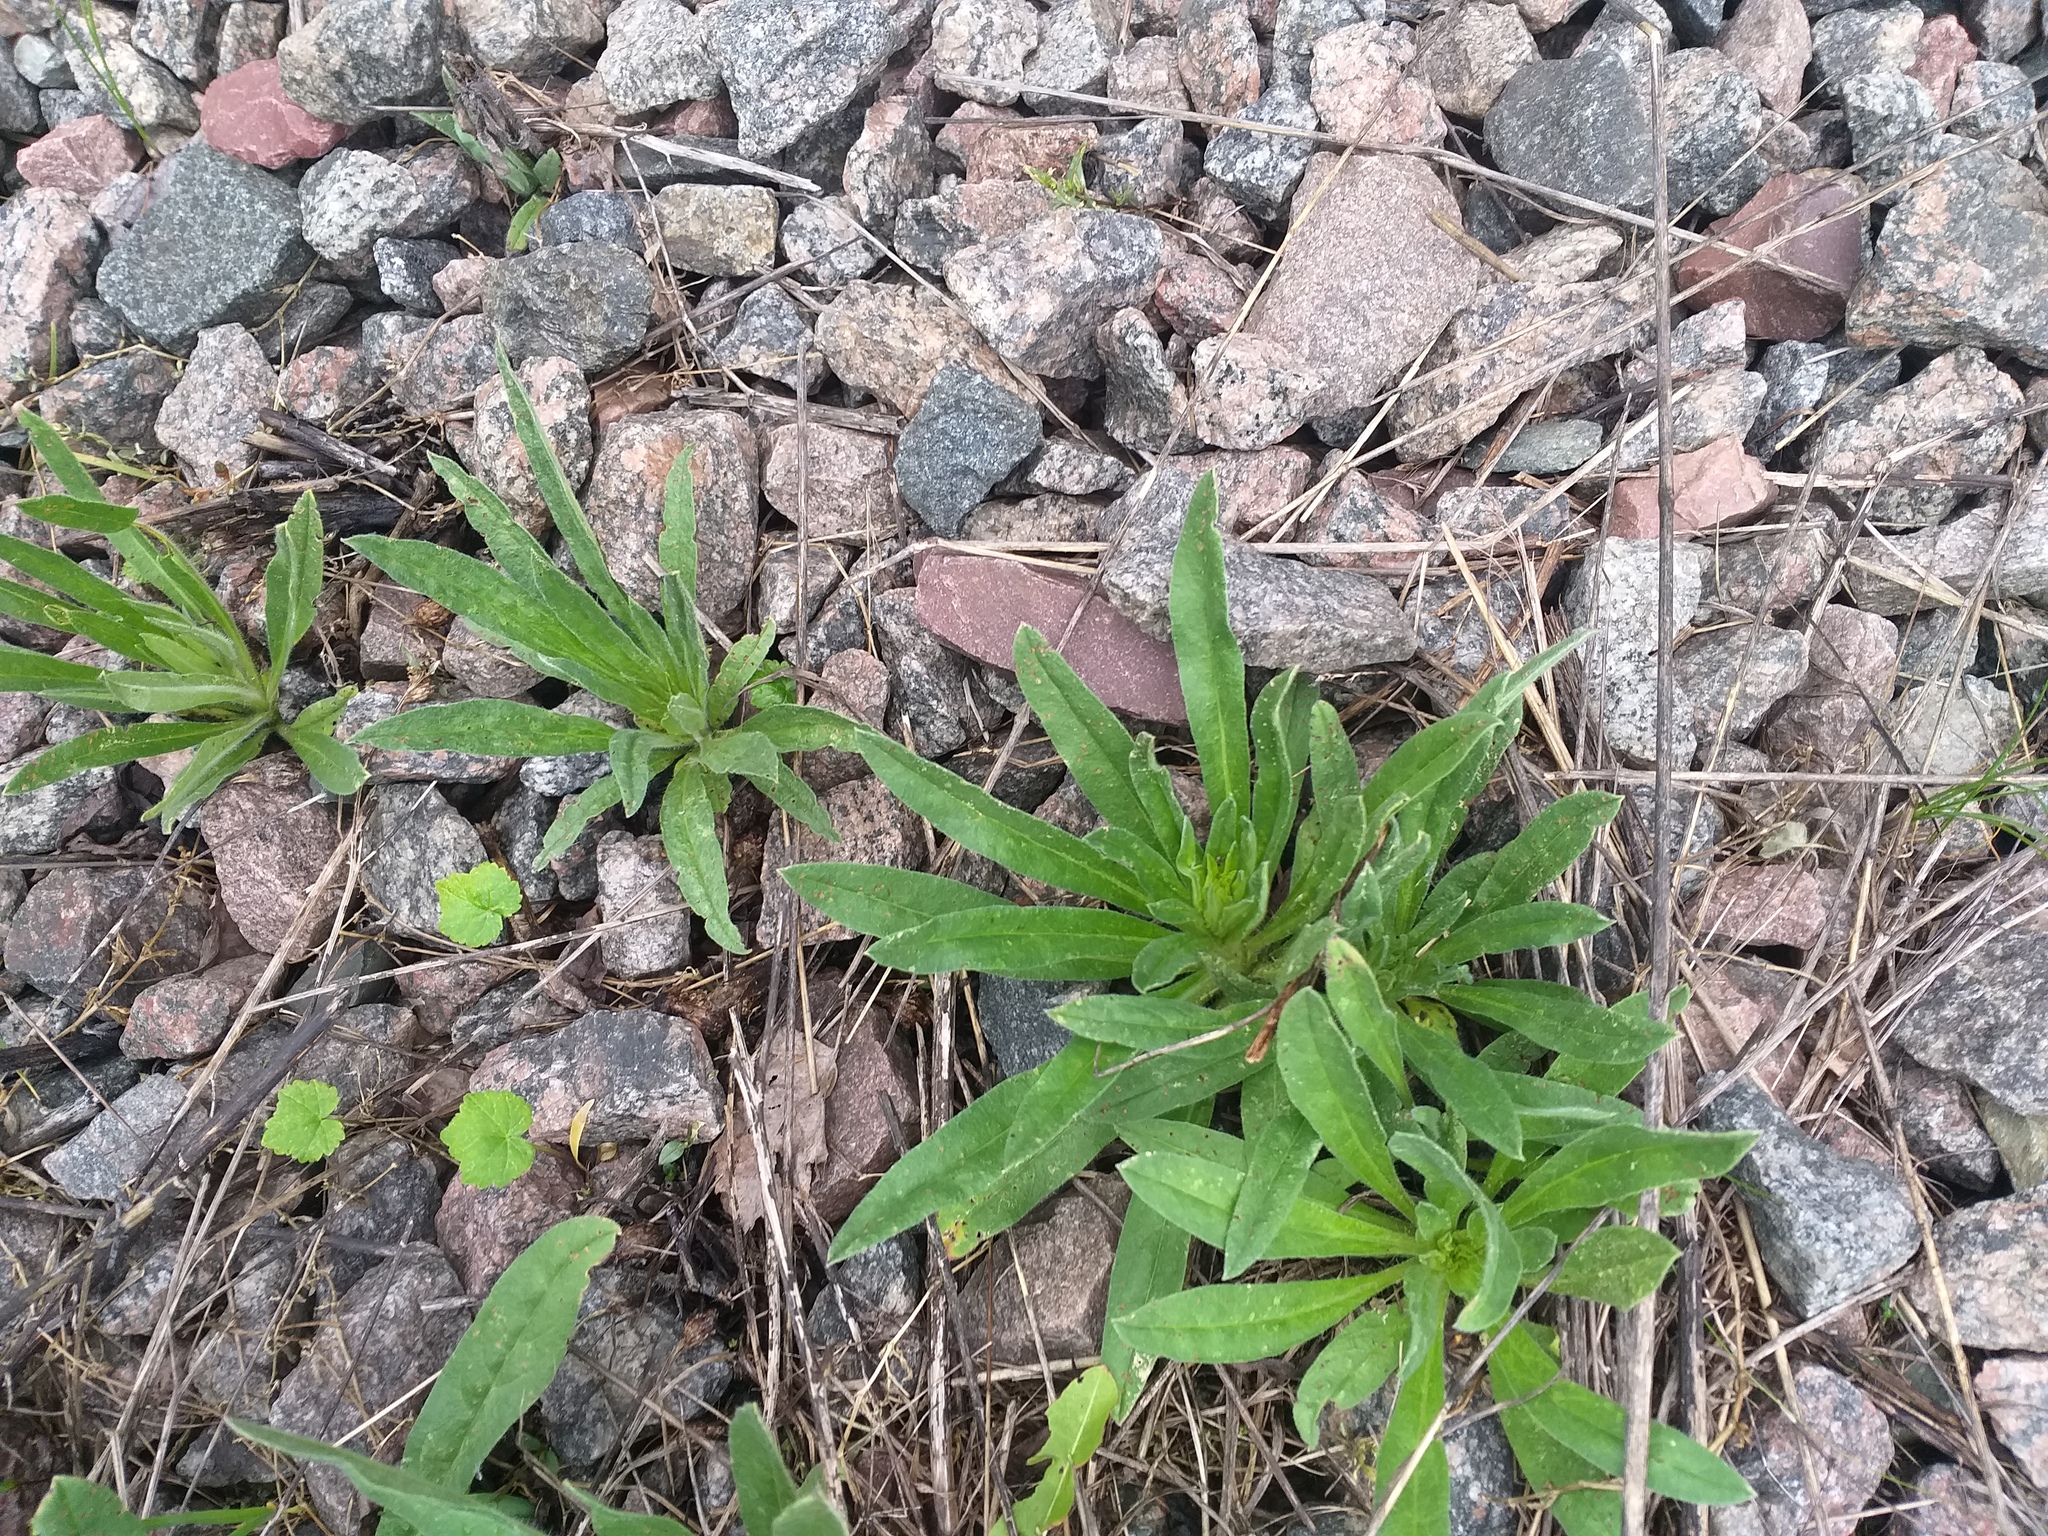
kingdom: Plantae
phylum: Tracheophyta
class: Magnoliopsida
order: Boraginales
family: Boraginaceae
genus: Echium
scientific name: Echium vulgare
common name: Common viper's bugloss
